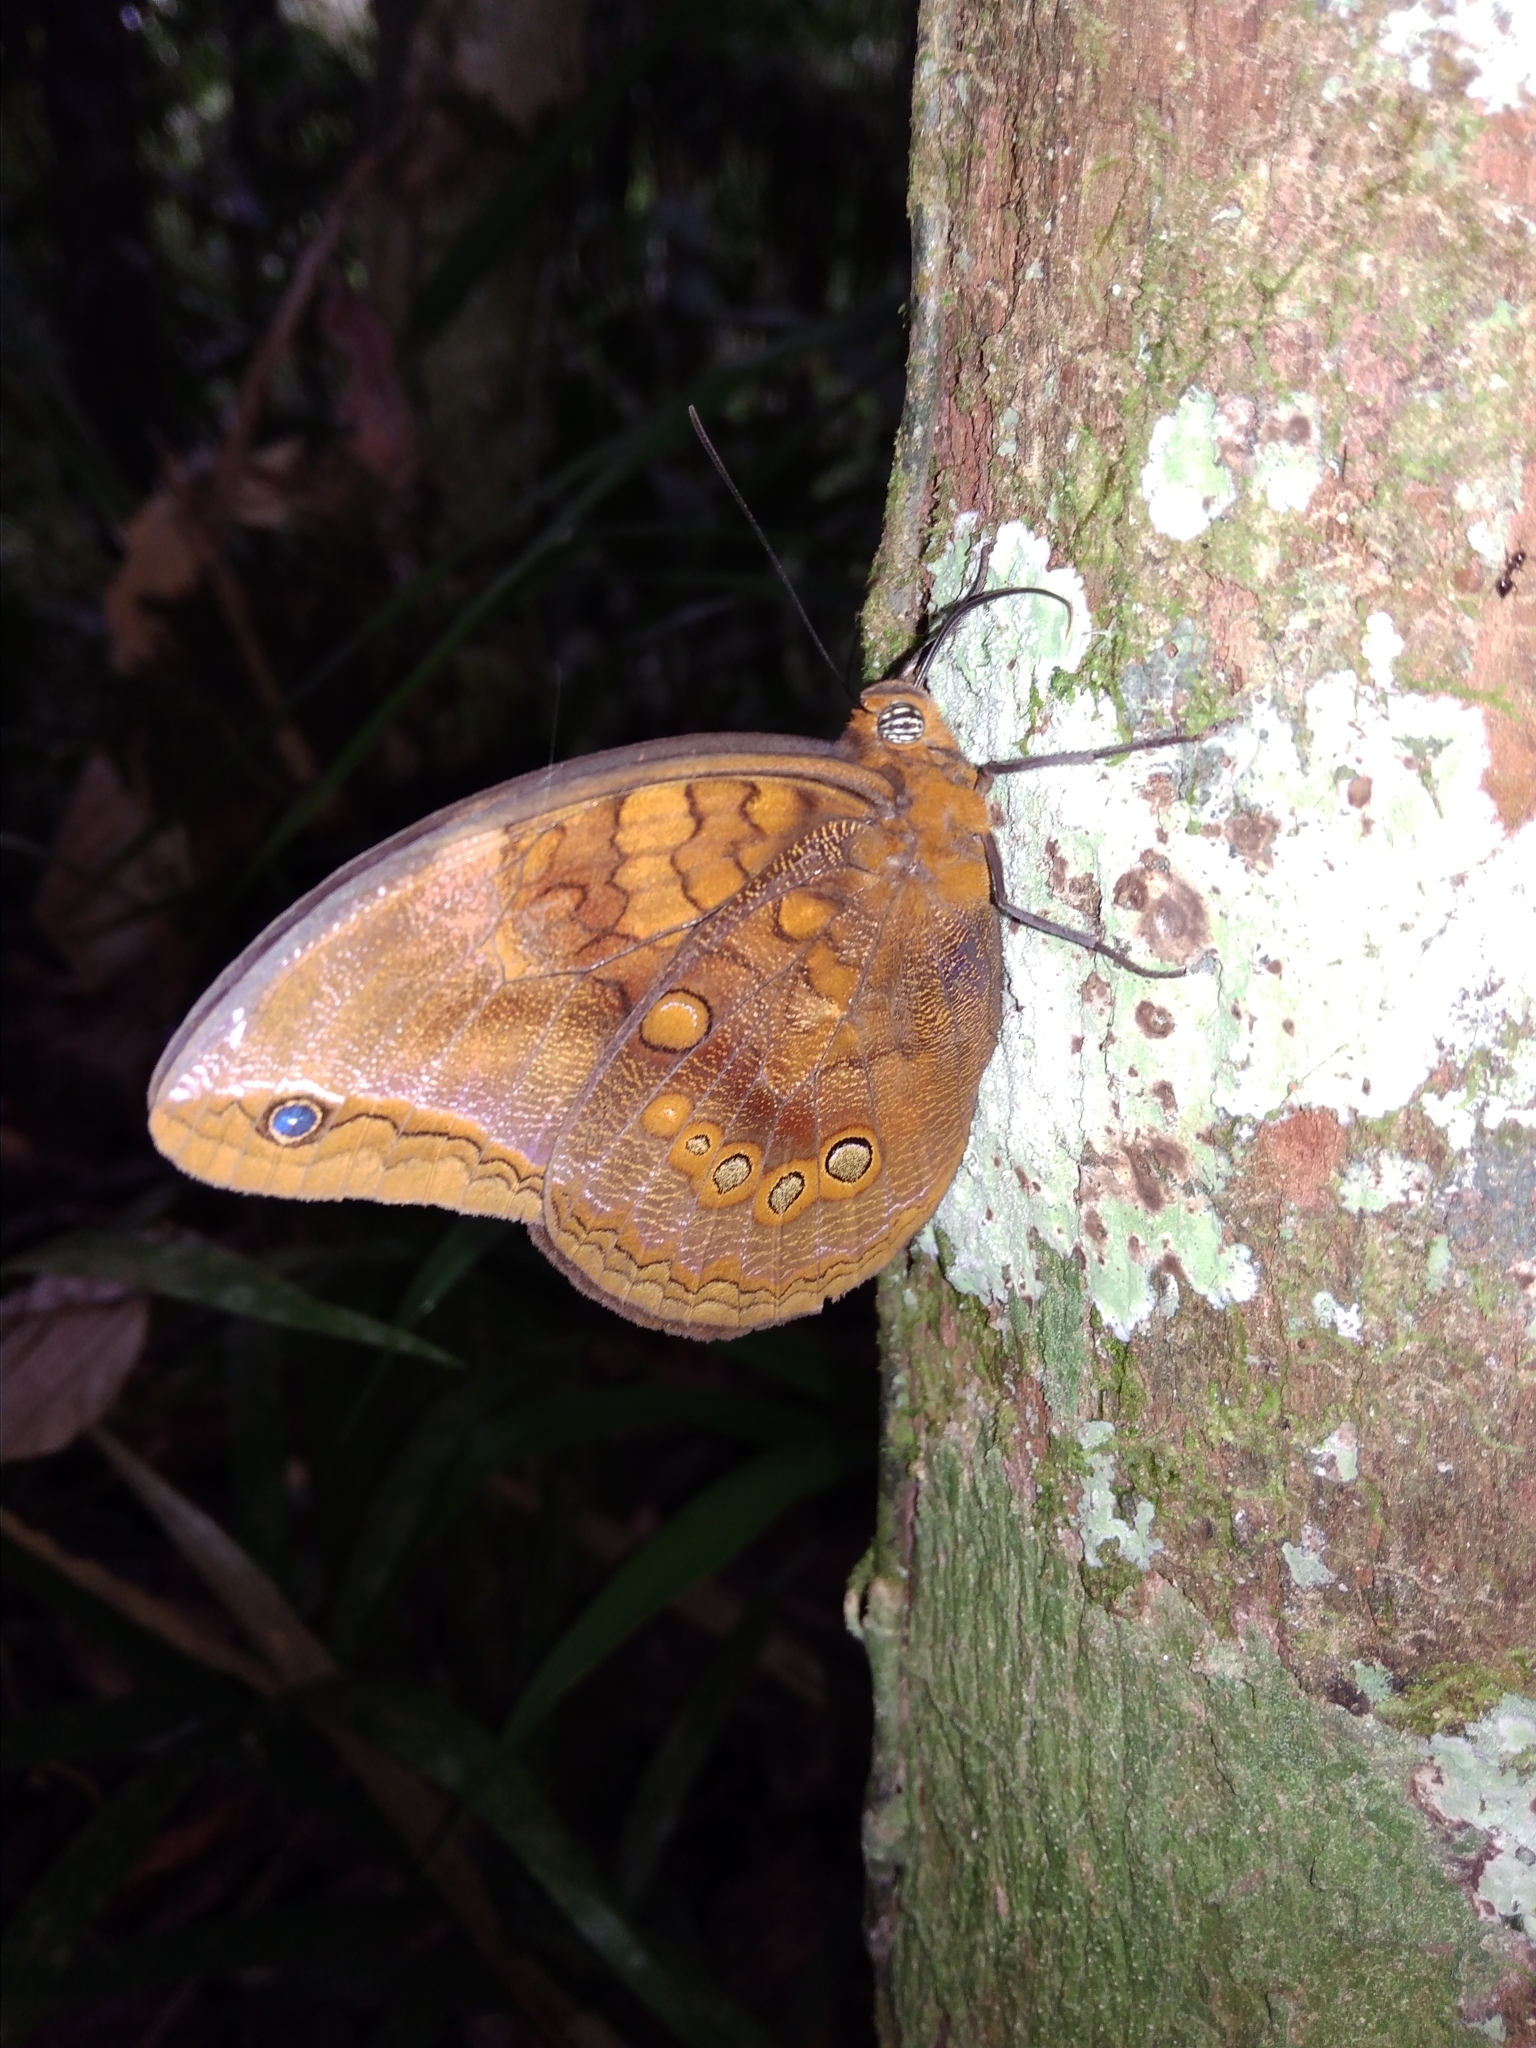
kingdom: Animalia
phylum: Arthropoda
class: Insecta
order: Lepidoptera
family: Nymphalidae
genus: Catoblepia
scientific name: Catoblepia berecynthia
